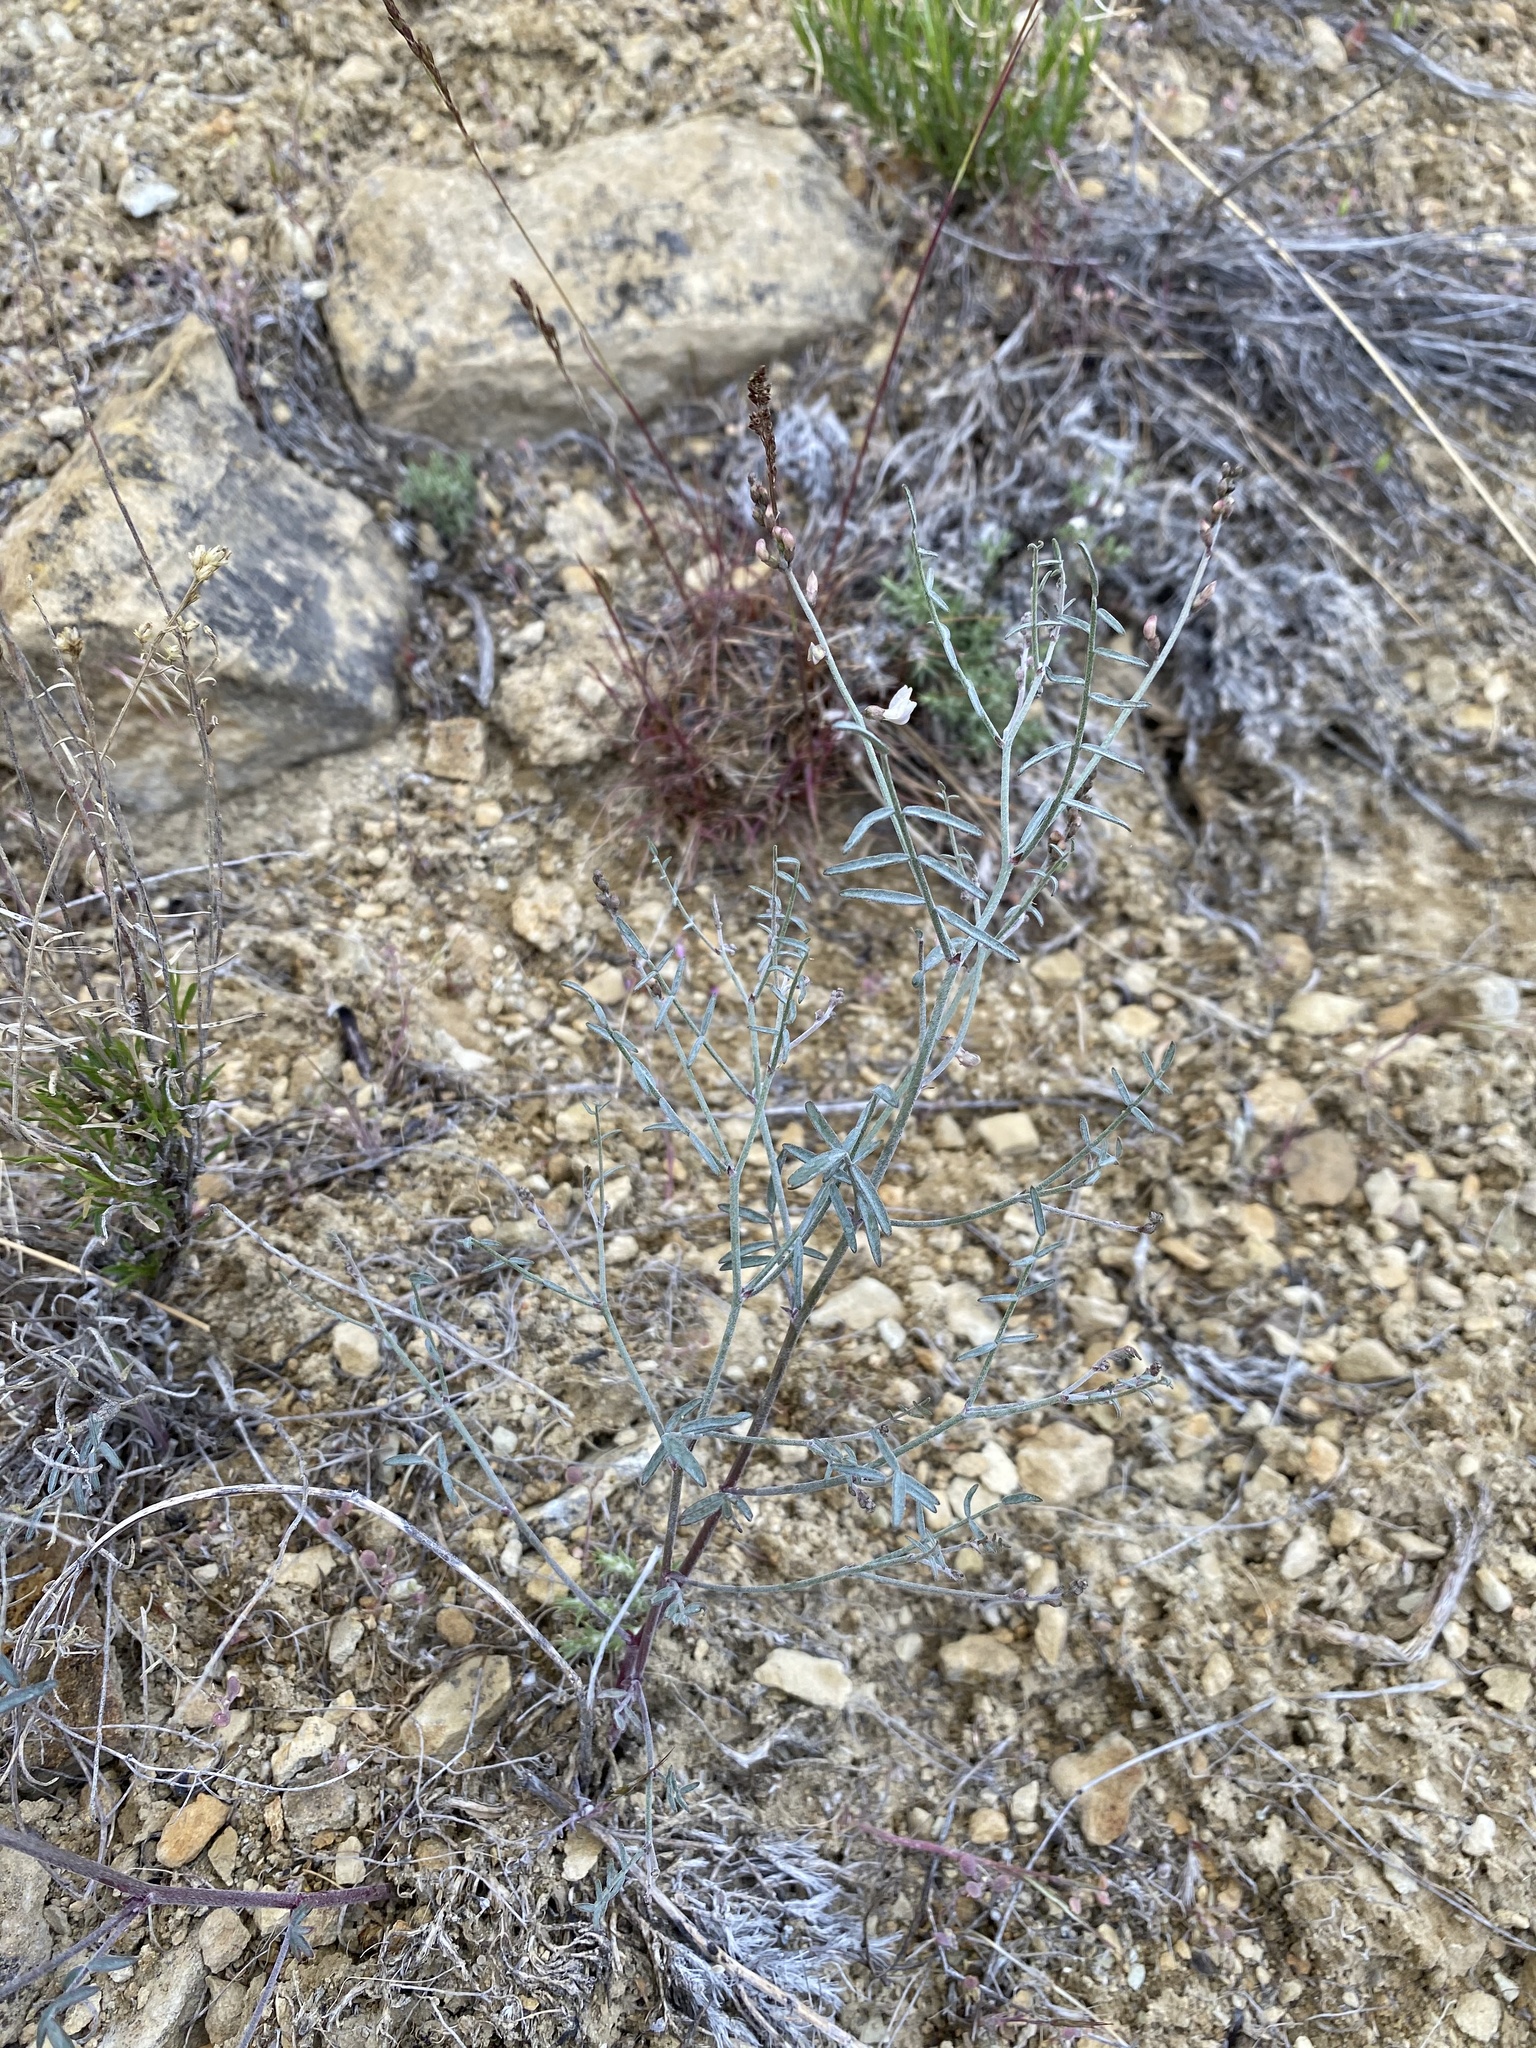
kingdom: Plantae
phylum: Tracheophyta
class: Magnoliopsida
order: Fabales
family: Fabaceae
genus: Astragalus
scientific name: Astragalus solitarius
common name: Lonesome milk-vetch
